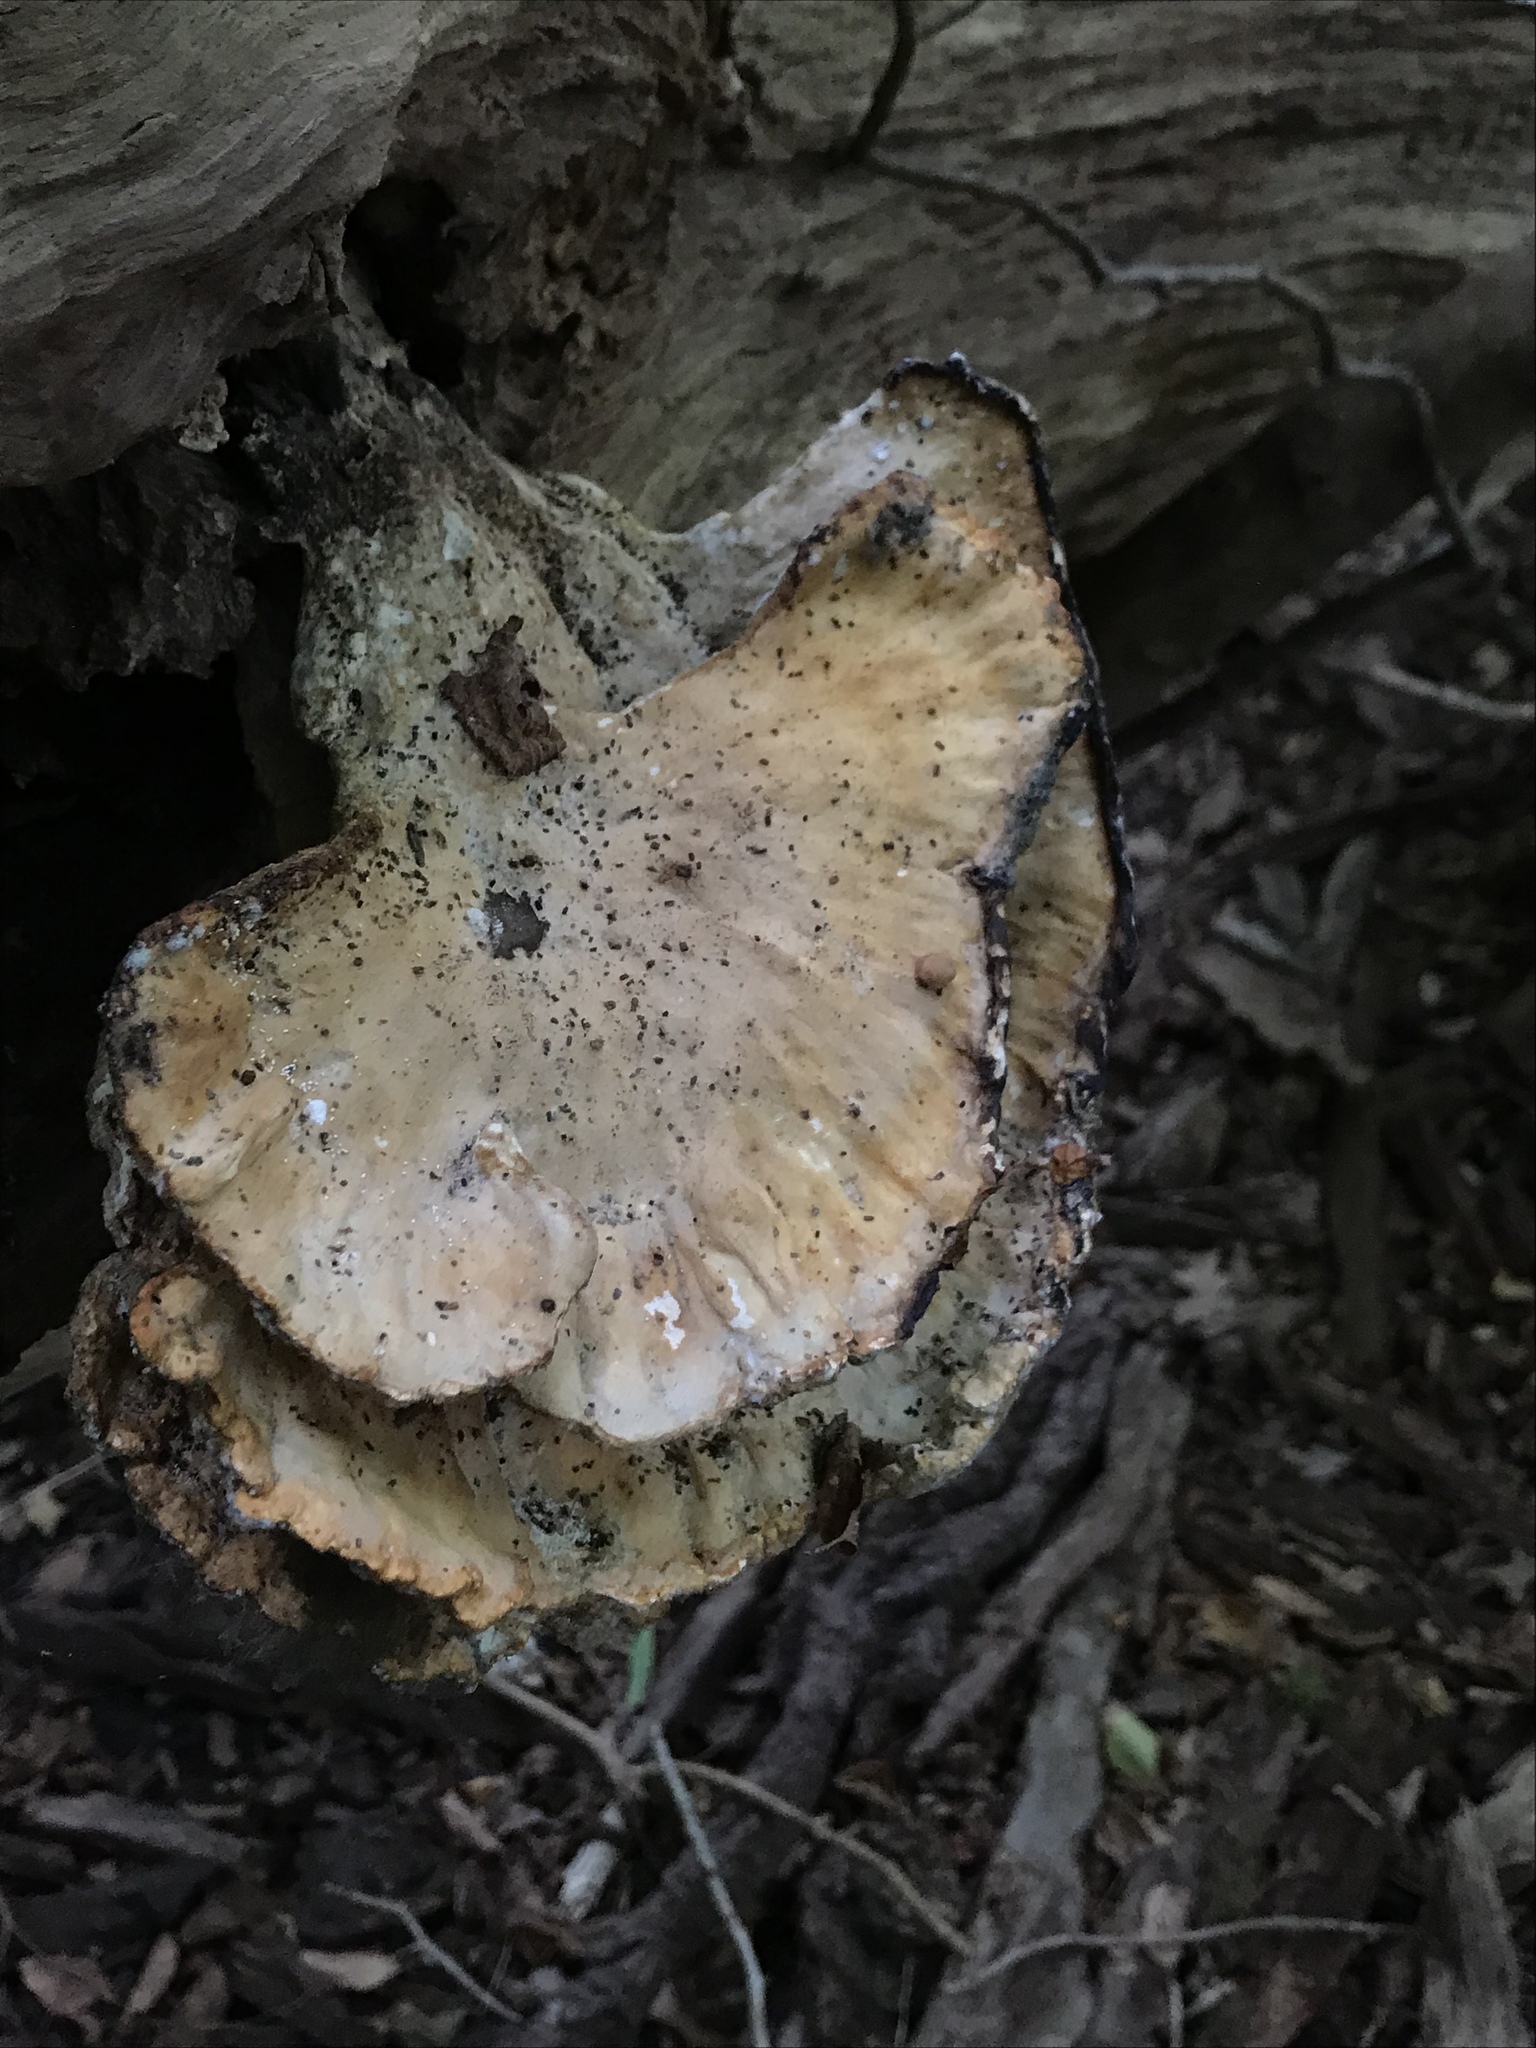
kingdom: Fungi
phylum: Basidiomycota
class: Agaricomycetes
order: Polyporales
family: Laetiporaceae
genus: Laetiporus
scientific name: Laetiporus sulphureus
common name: Chicken of the woods
